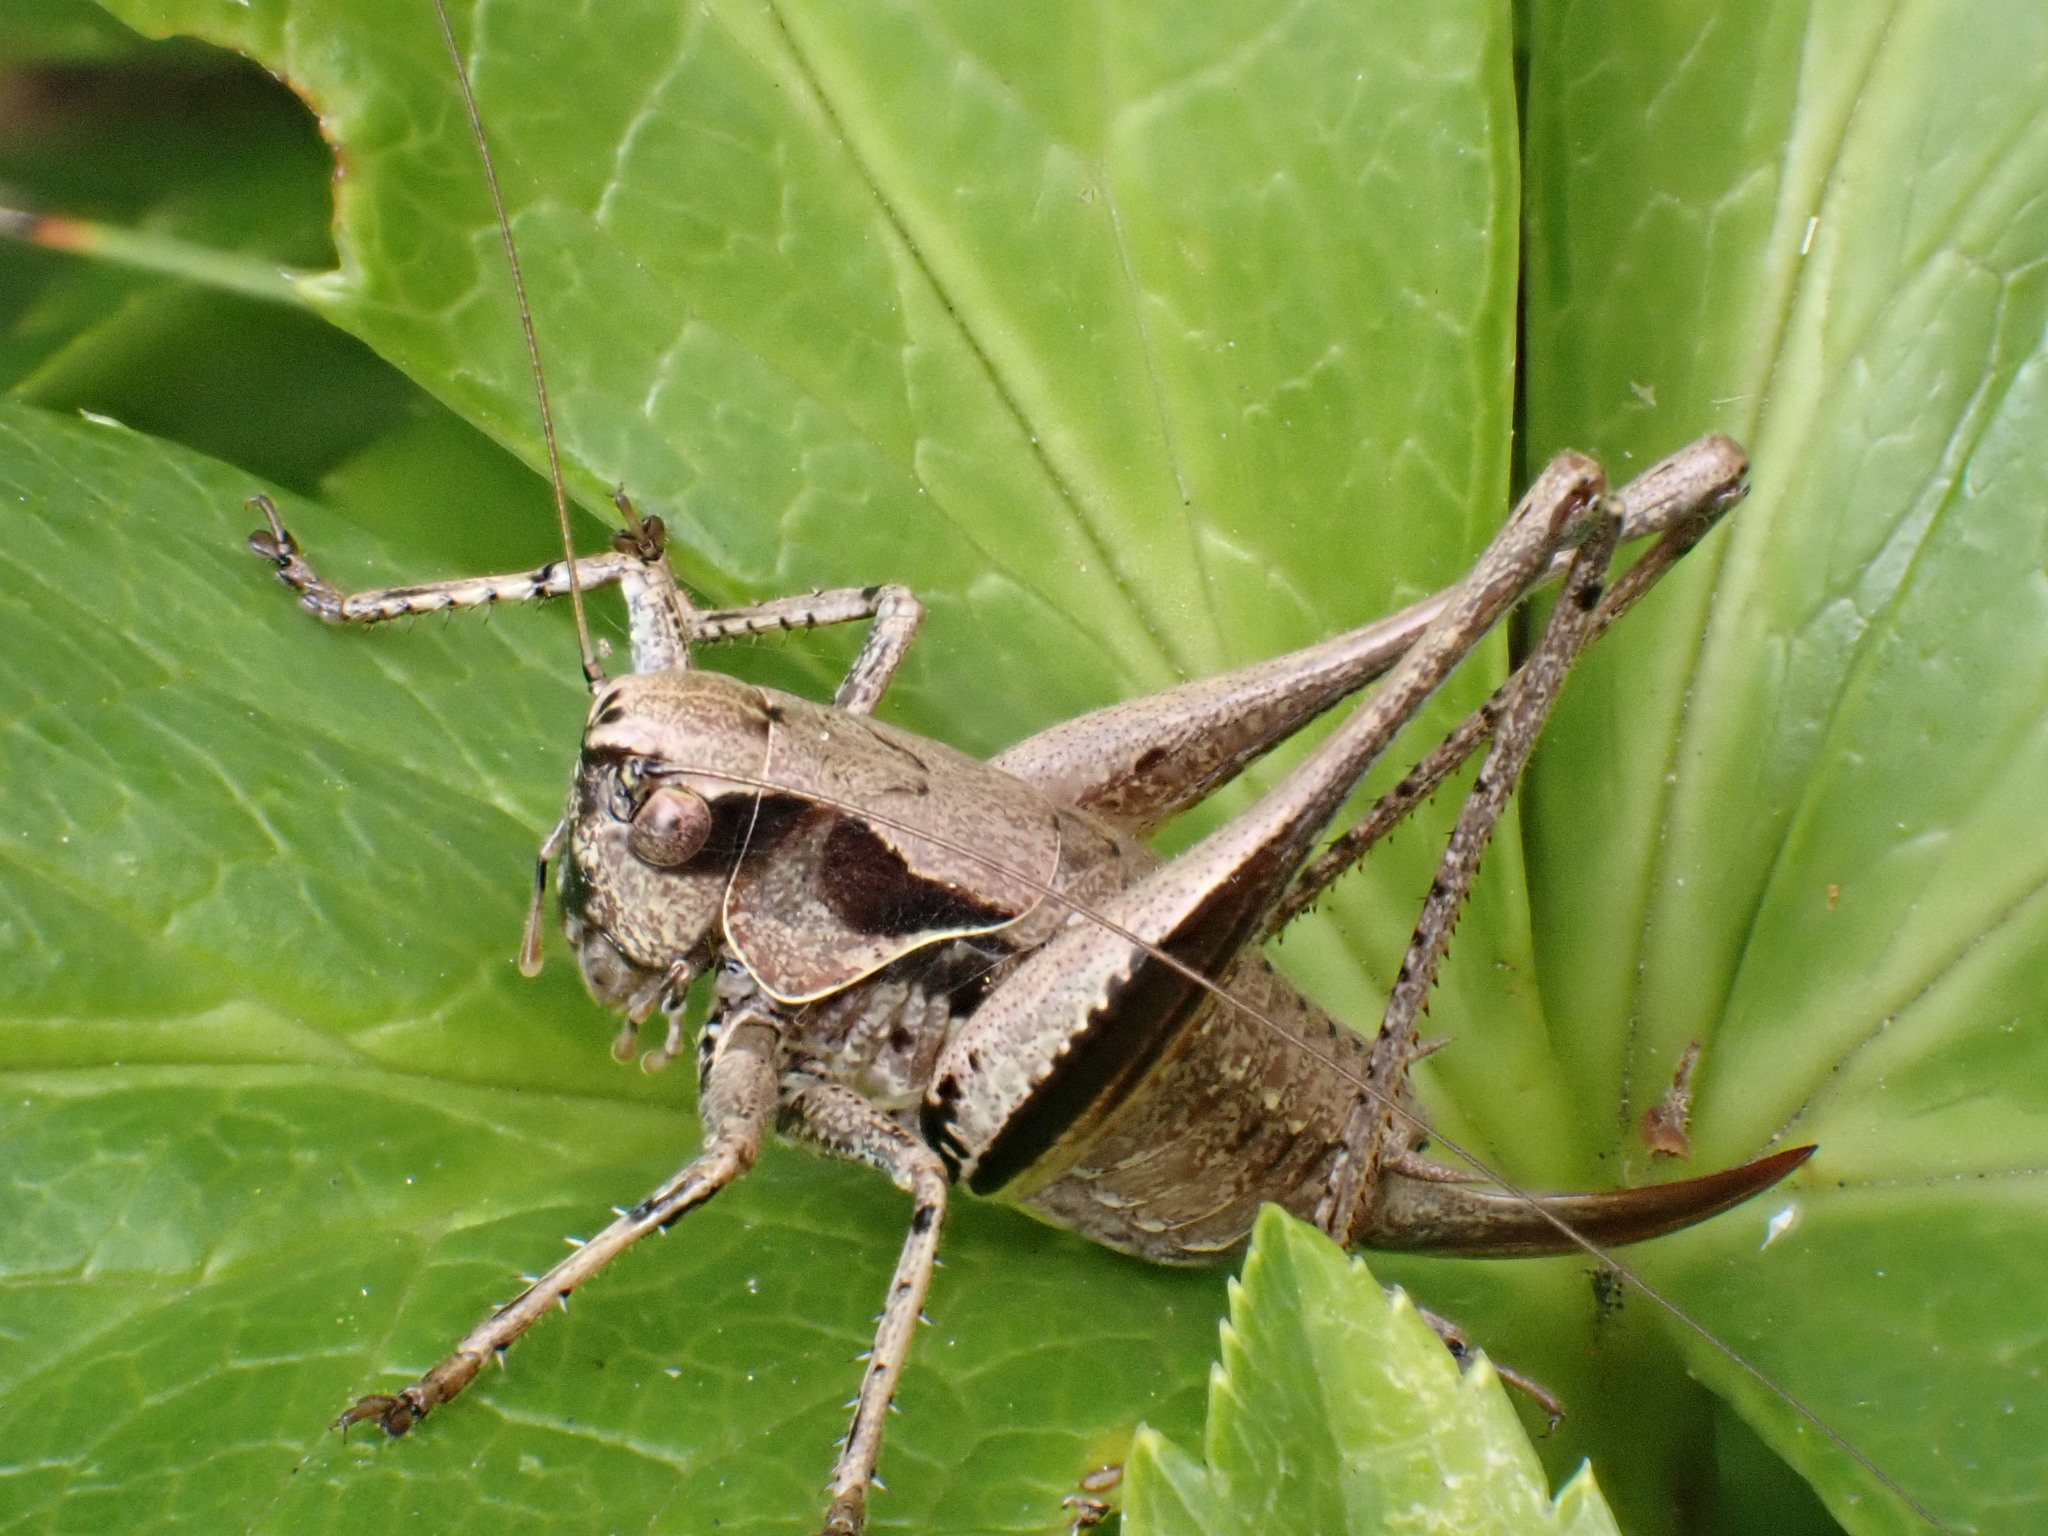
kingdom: Animalia
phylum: Arthropoda
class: Insecta
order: Orthoptera
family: Tettigoniidae
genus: Pholidoptera
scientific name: Pholidoptera griseoaptera
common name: Dark bush-cricket
